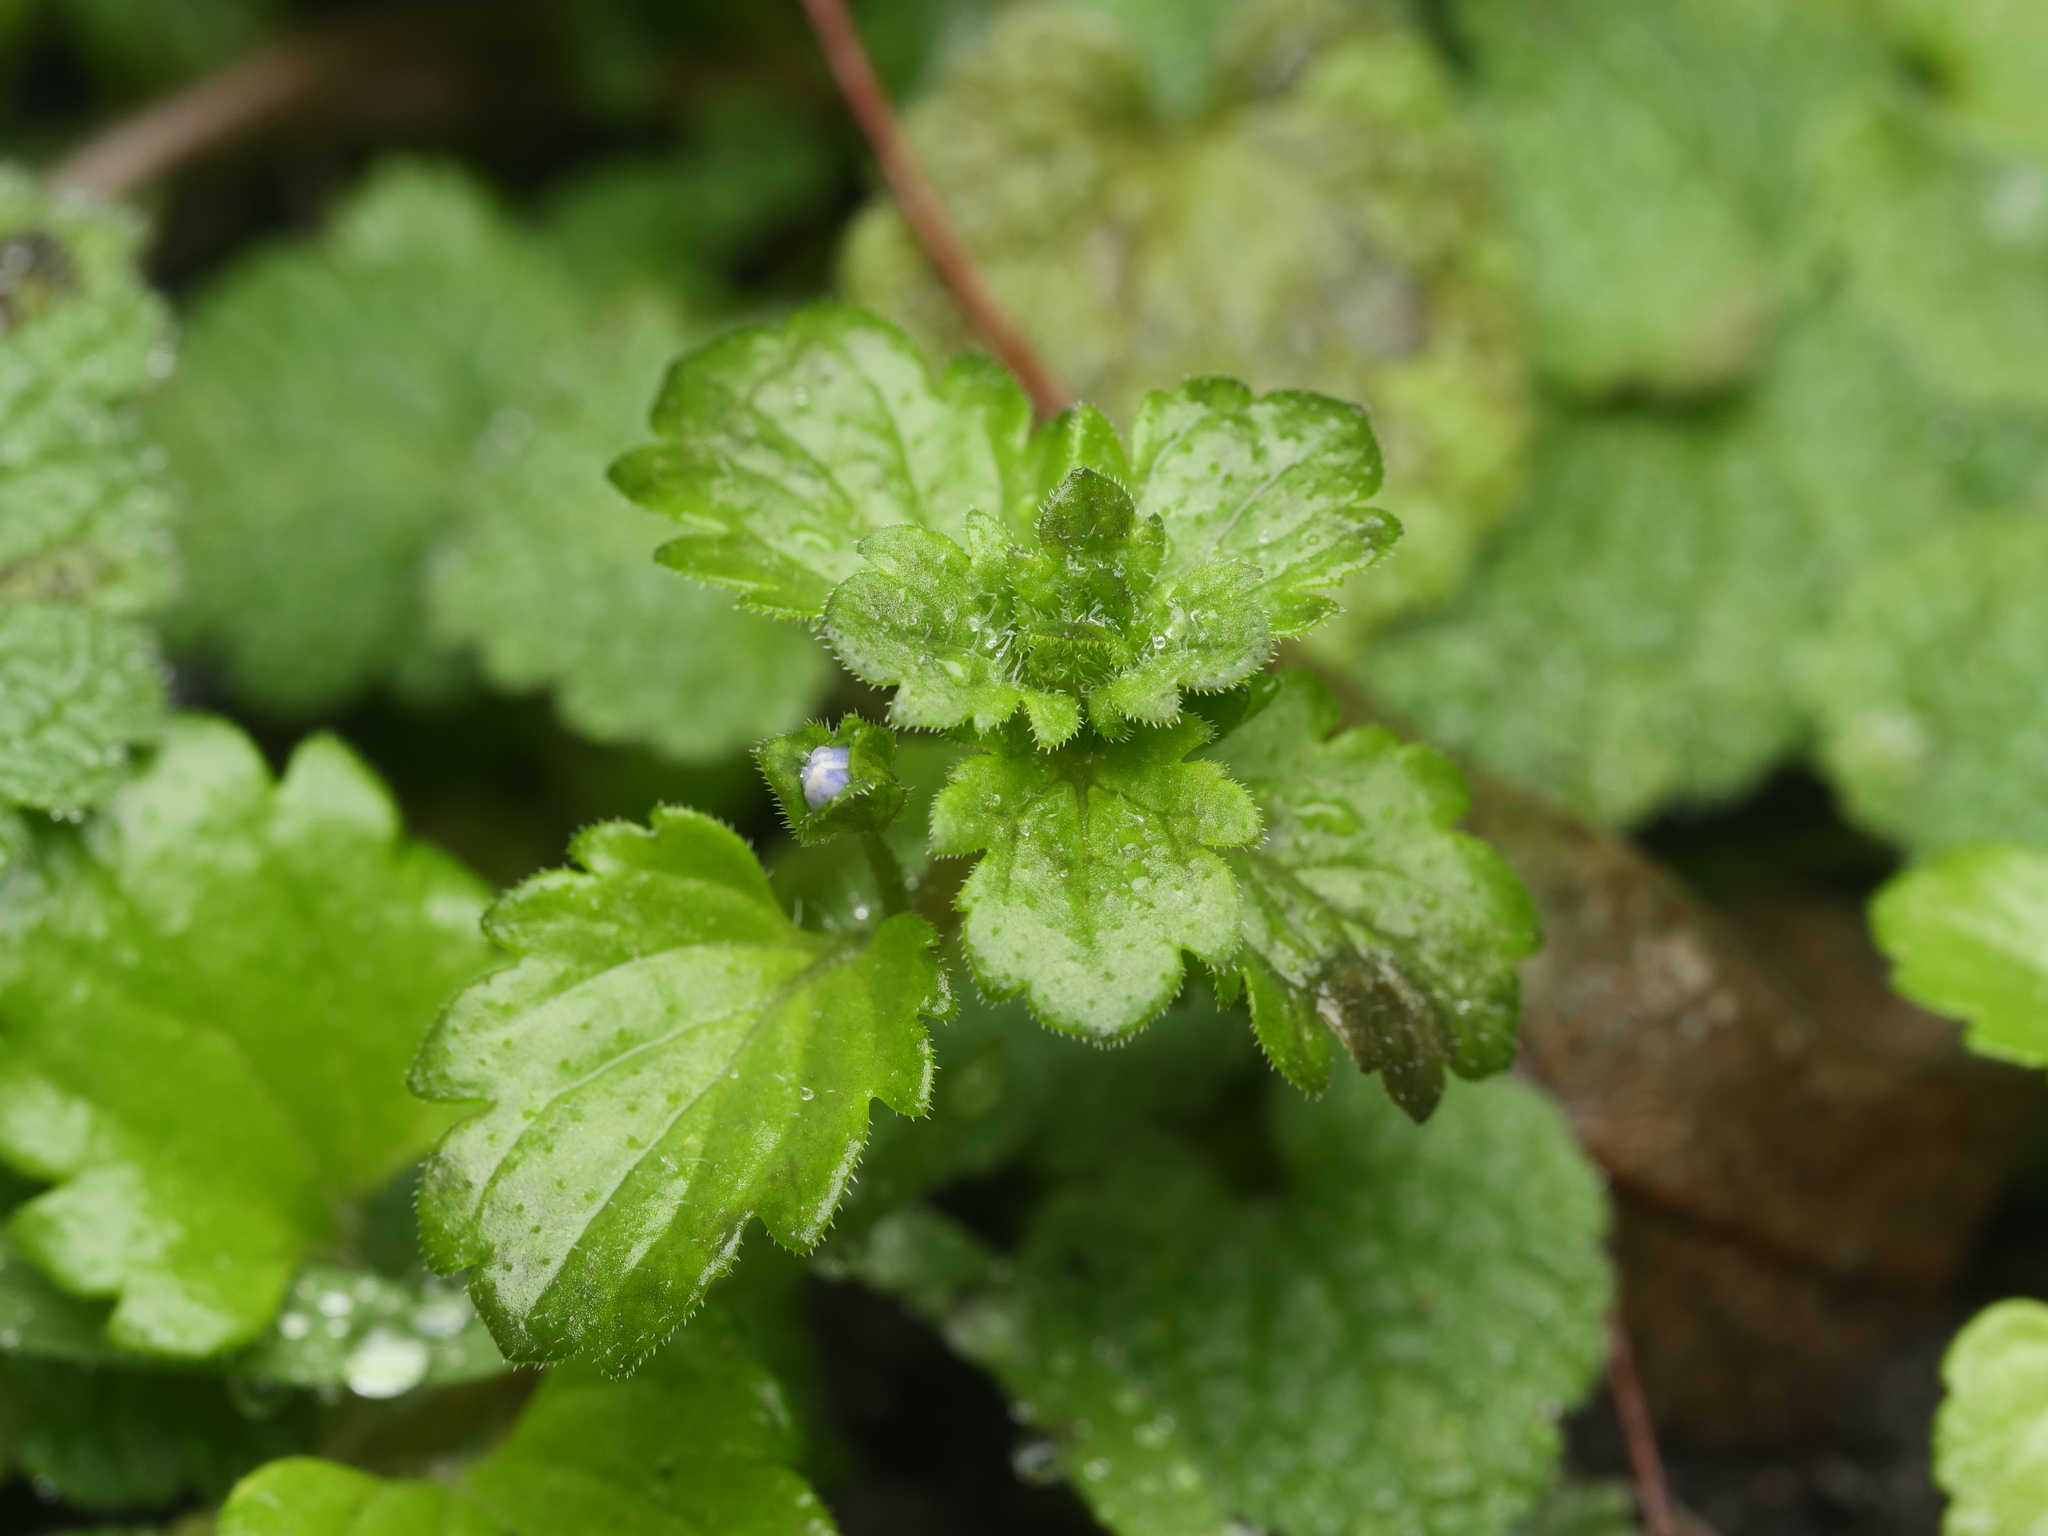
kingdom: Plantae
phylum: Tracheophyta
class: Magnoliopsida
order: Lamiales
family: Plantaginaceae
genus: Veronica
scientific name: Veronica persica
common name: Common field-speedwell
